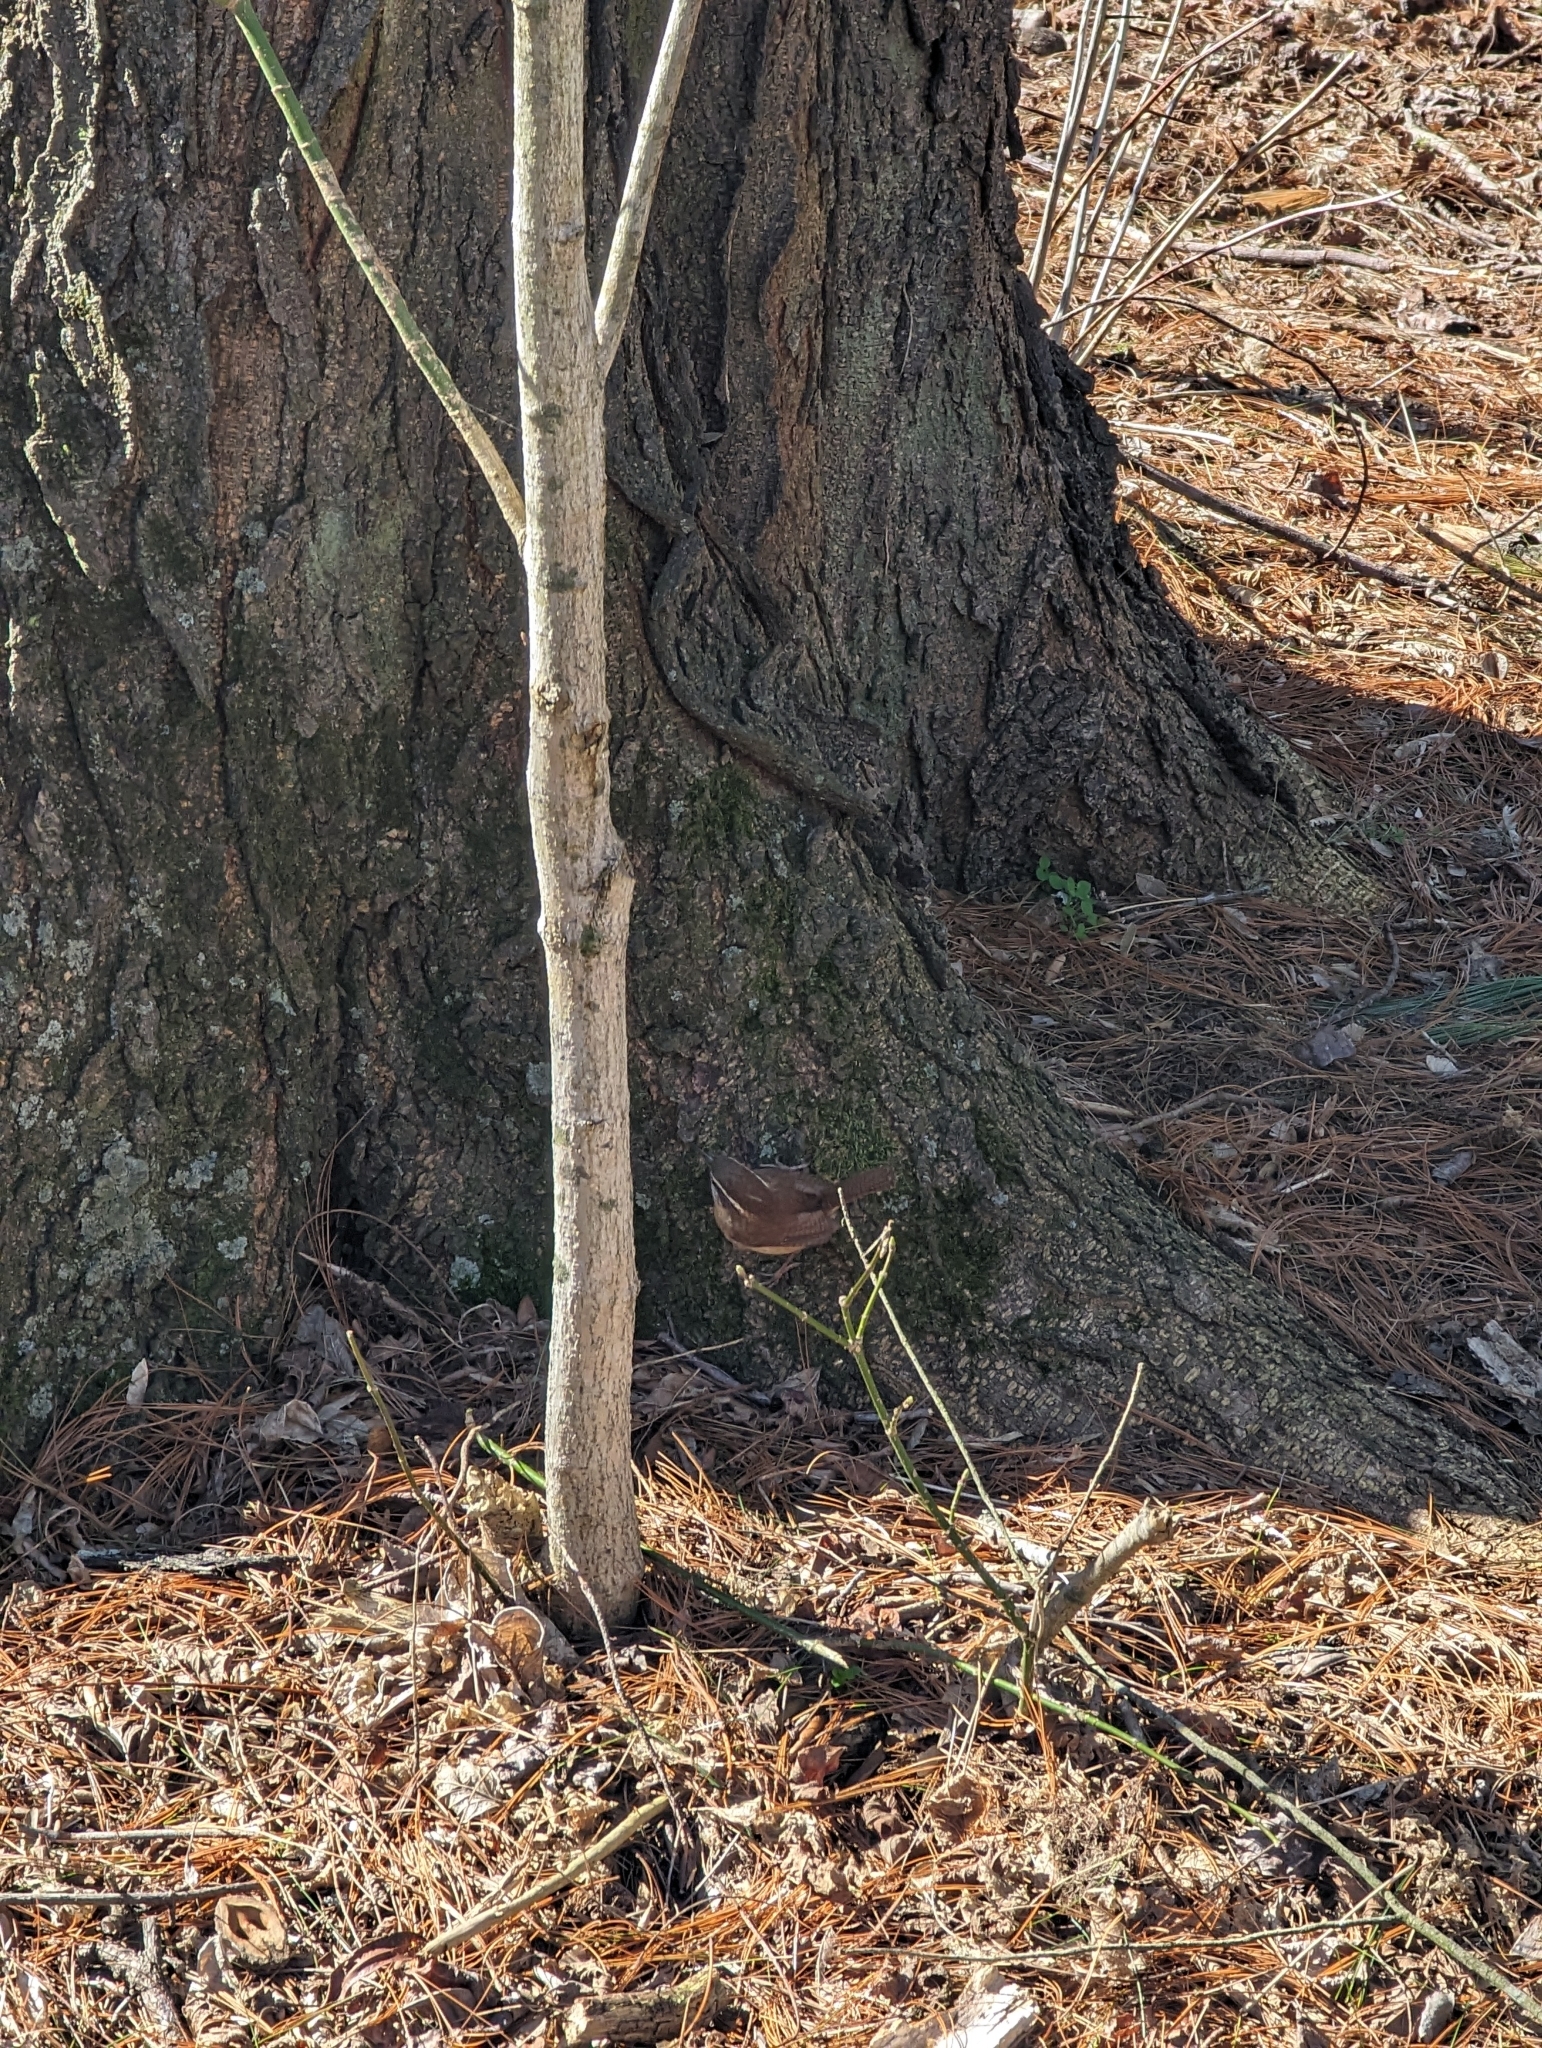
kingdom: Animalia
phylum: Chordata
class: Aves
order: Passeriformes
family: Troglodytidae
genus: Thryothorus
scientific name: Thryothorus ludovicianus
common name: Carolina wren
